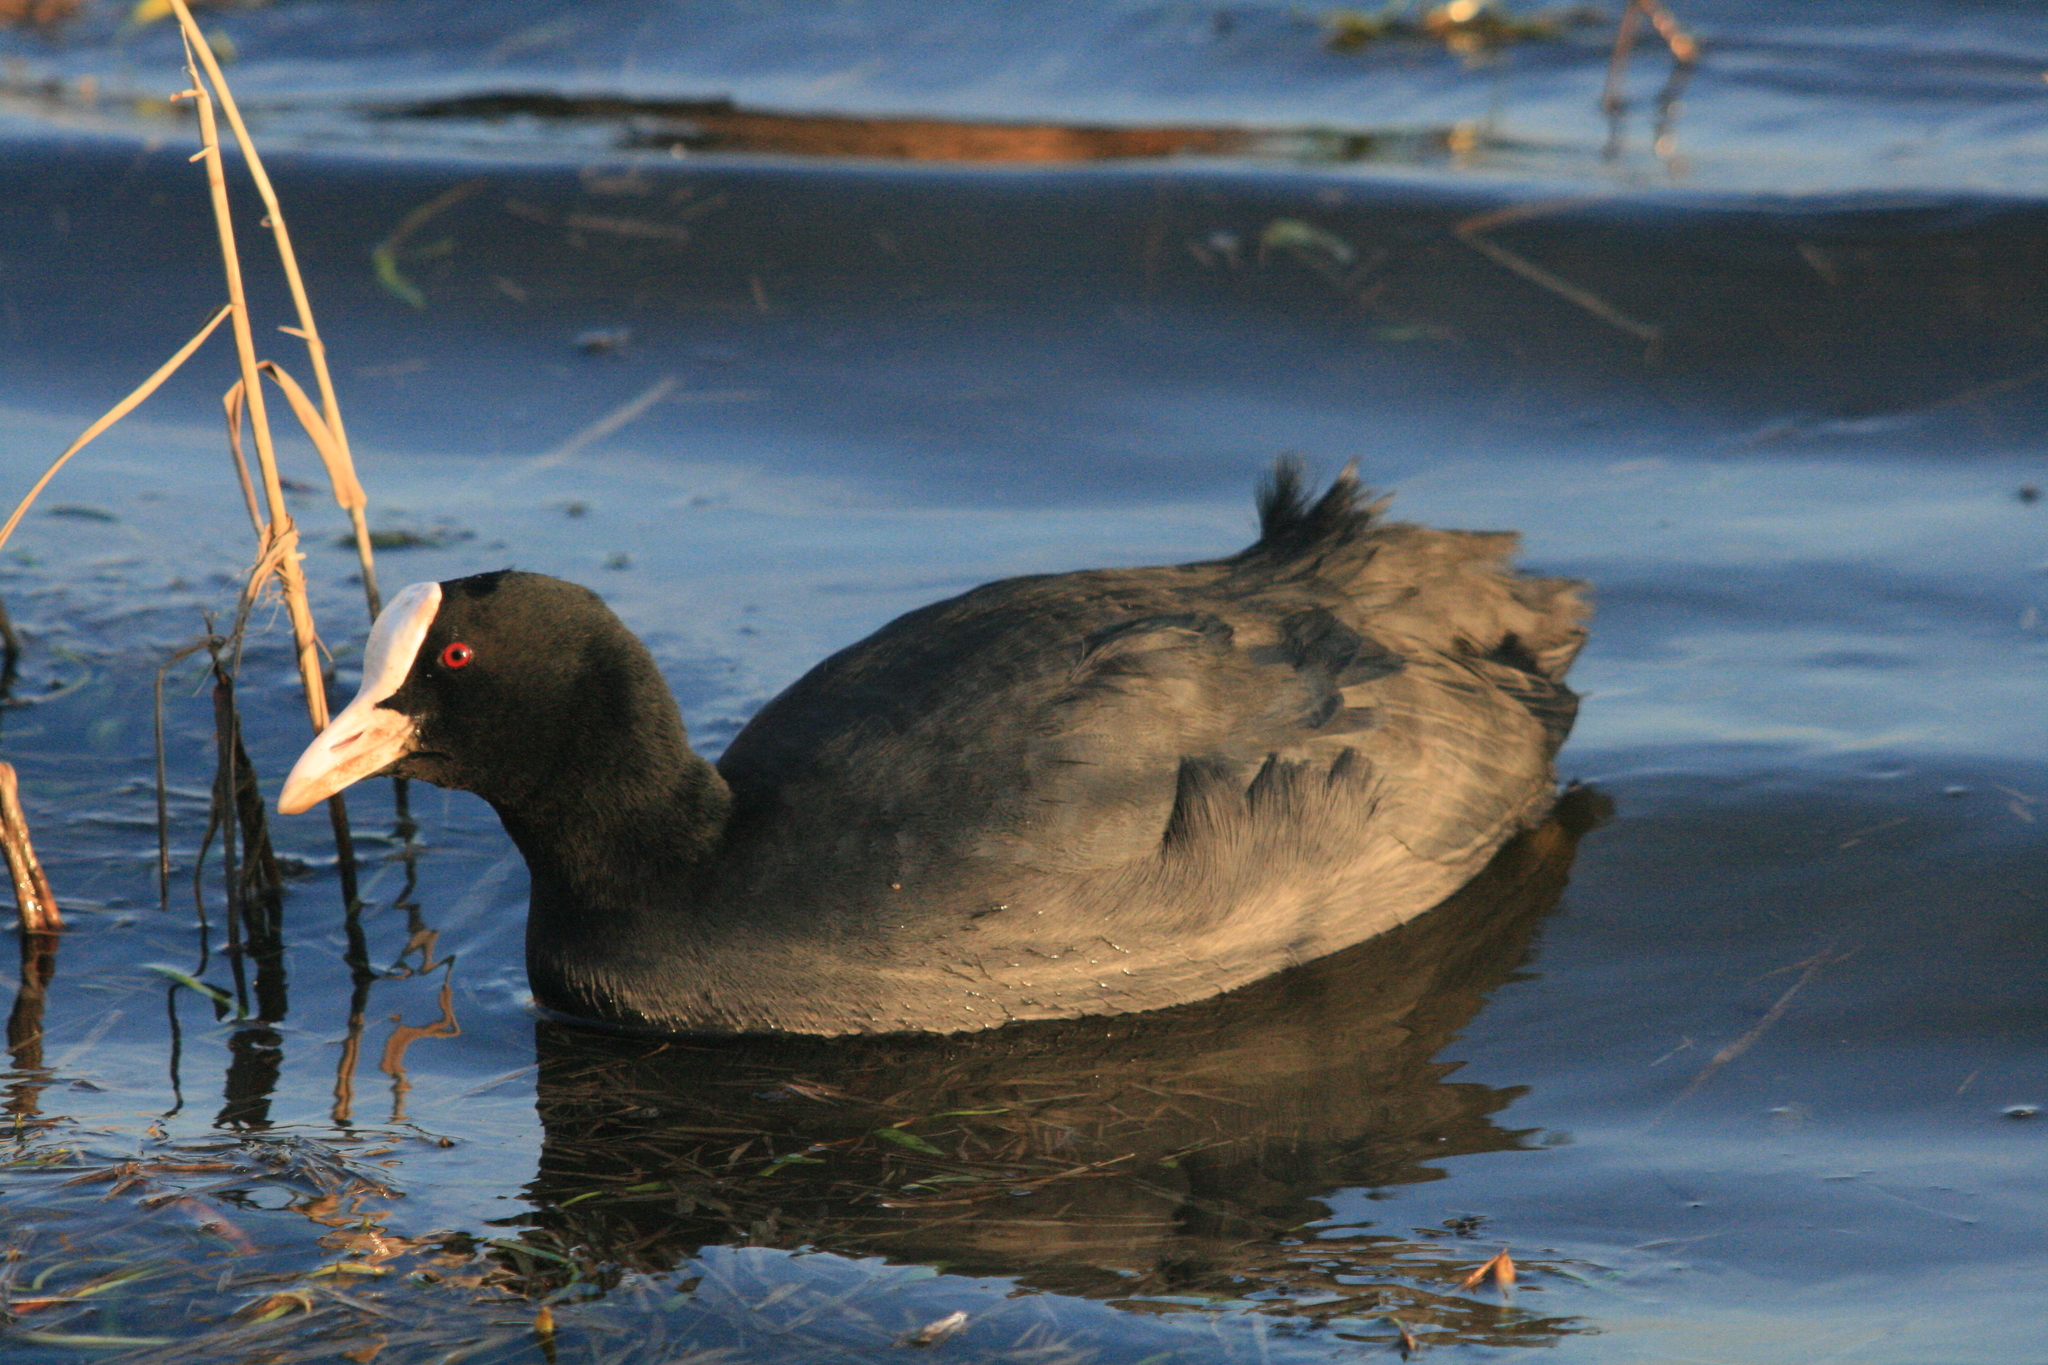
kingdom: Animalia
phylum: Chordata
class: Aves
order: Gruiformes
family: Rallidae
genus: Fulica
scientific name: Fulica atra
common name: Eurasian coot
